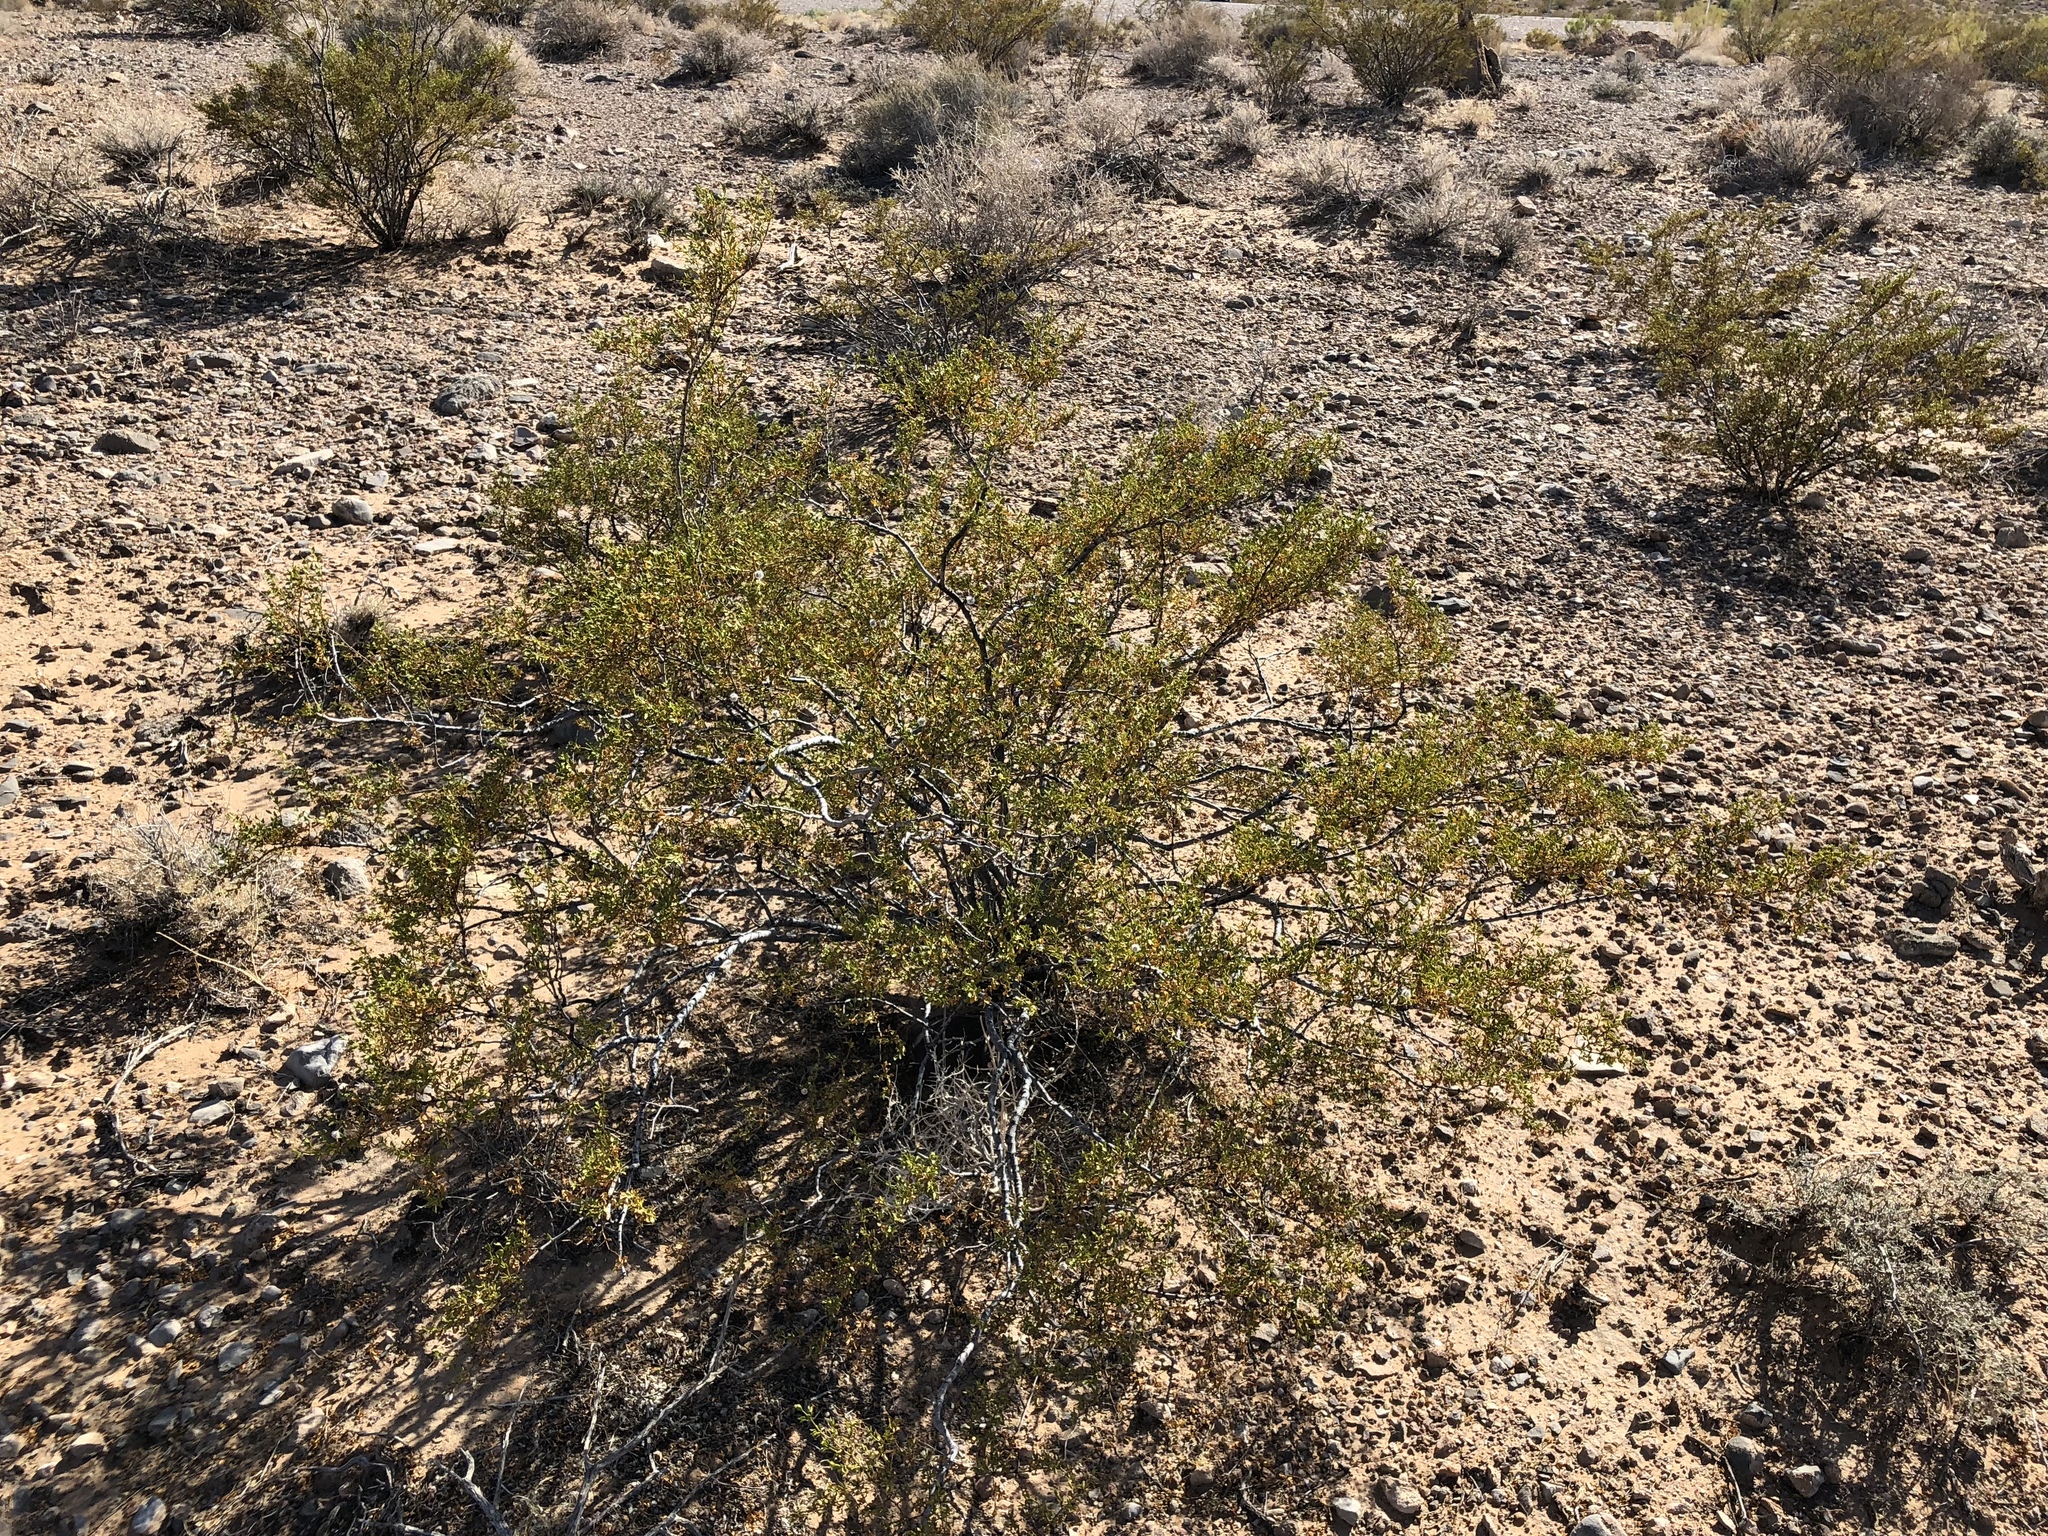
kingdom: Plantae
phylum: Tracheophyta
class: Magnoliopsida
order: Zygophyllales
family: Zygophyllaceae
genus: Larrea
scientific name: Larrea tridentata
